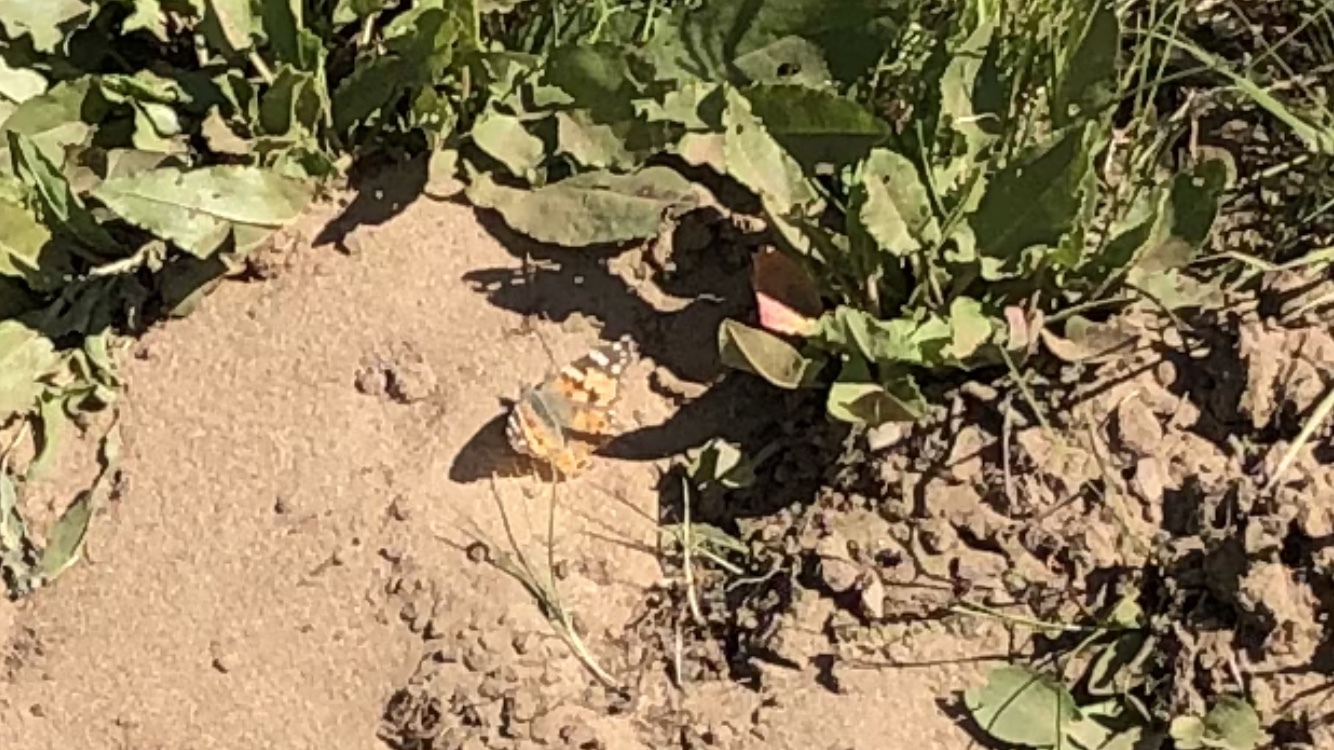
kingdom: Animalia
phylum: Arthropoda
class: Insecta
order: Lepidoptera
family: Nymphalidae
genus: Vanessa
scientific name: Vanessa cardui
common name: Painted lady
